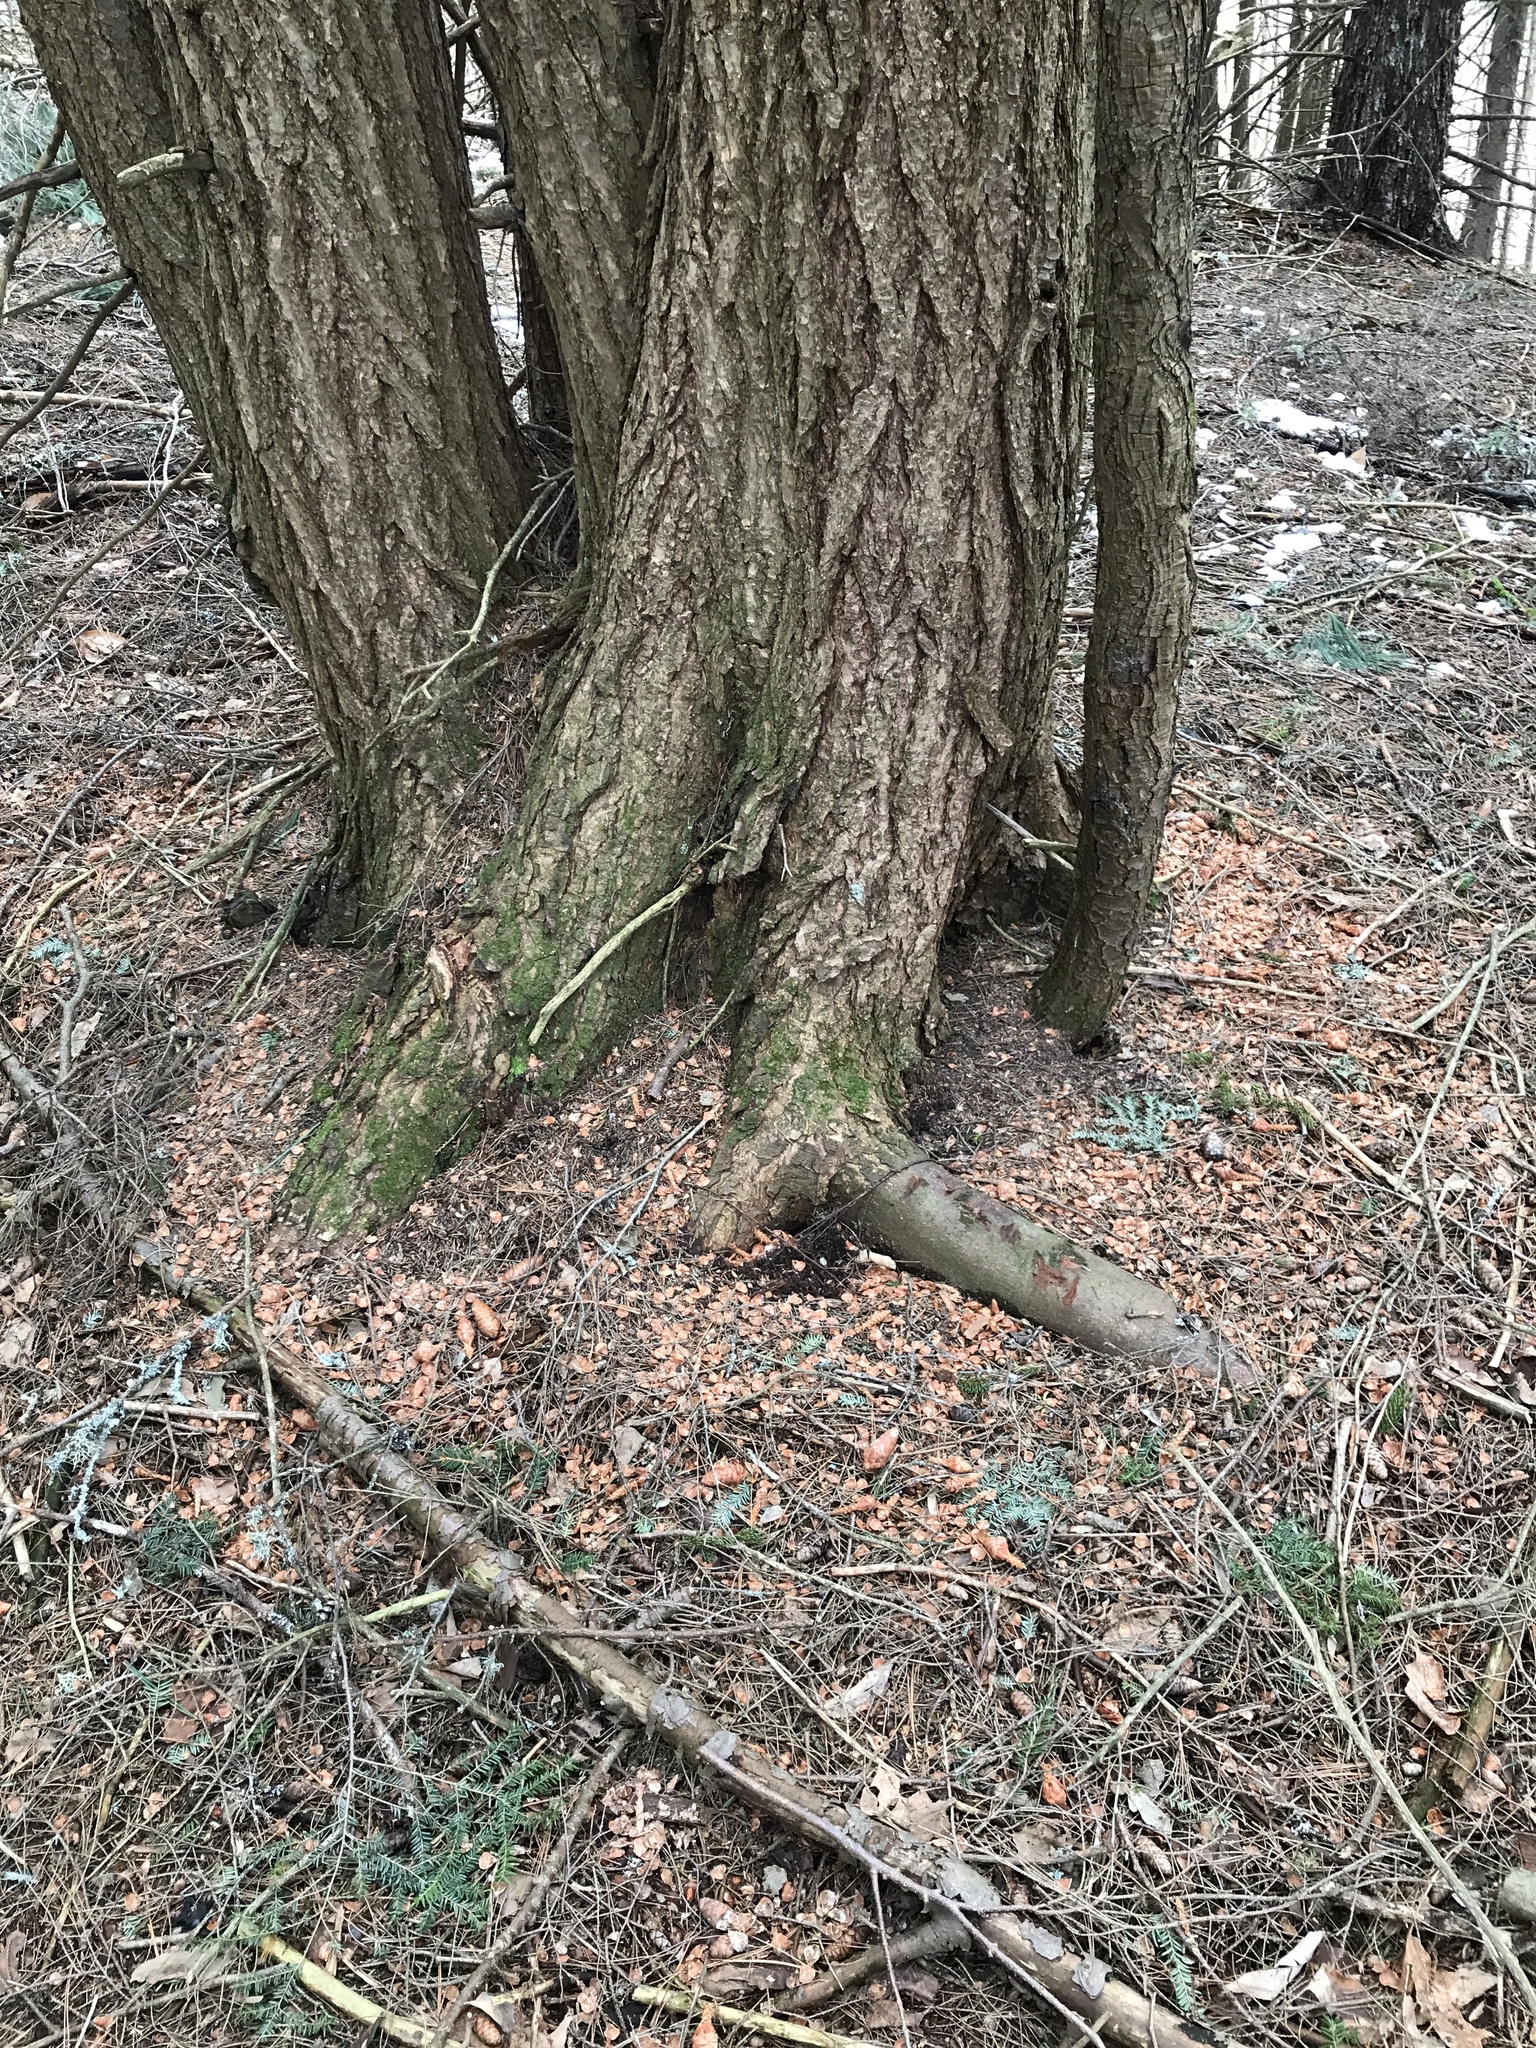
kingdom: Animalia
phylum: Chordata
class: Mammalia
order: Rodentia
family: Sciuridae
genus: Tamiasciurus
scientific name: Tamiasciurus hudsonicus
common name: Red squirrel
